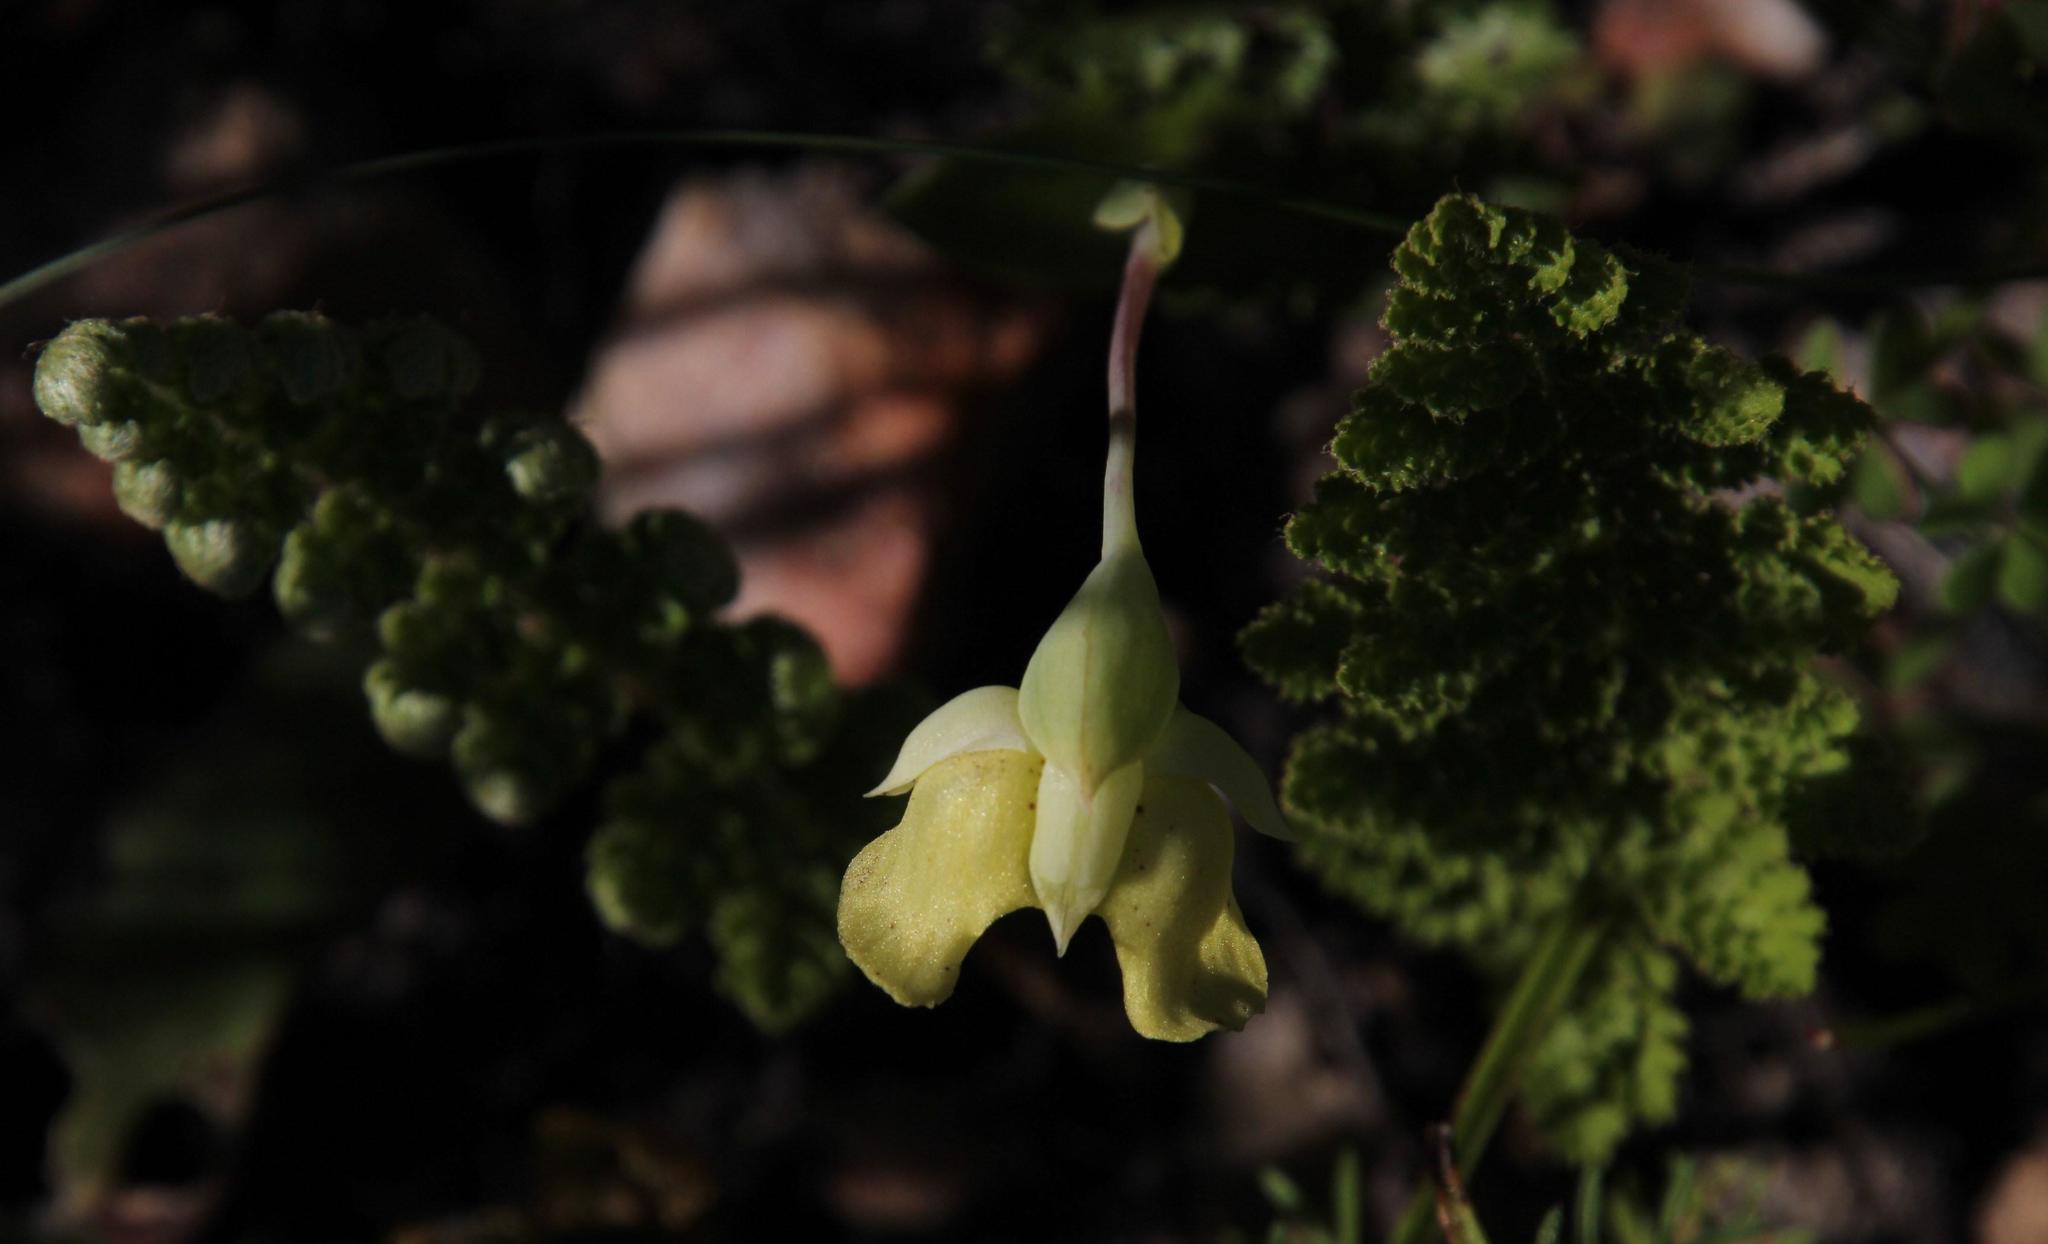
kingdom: Plantae
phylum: Tracheophyta
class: Liliopsida
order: Asparagales
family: Orchidaceae
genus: Pterygodium
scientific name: Pterygodium platypetalum
